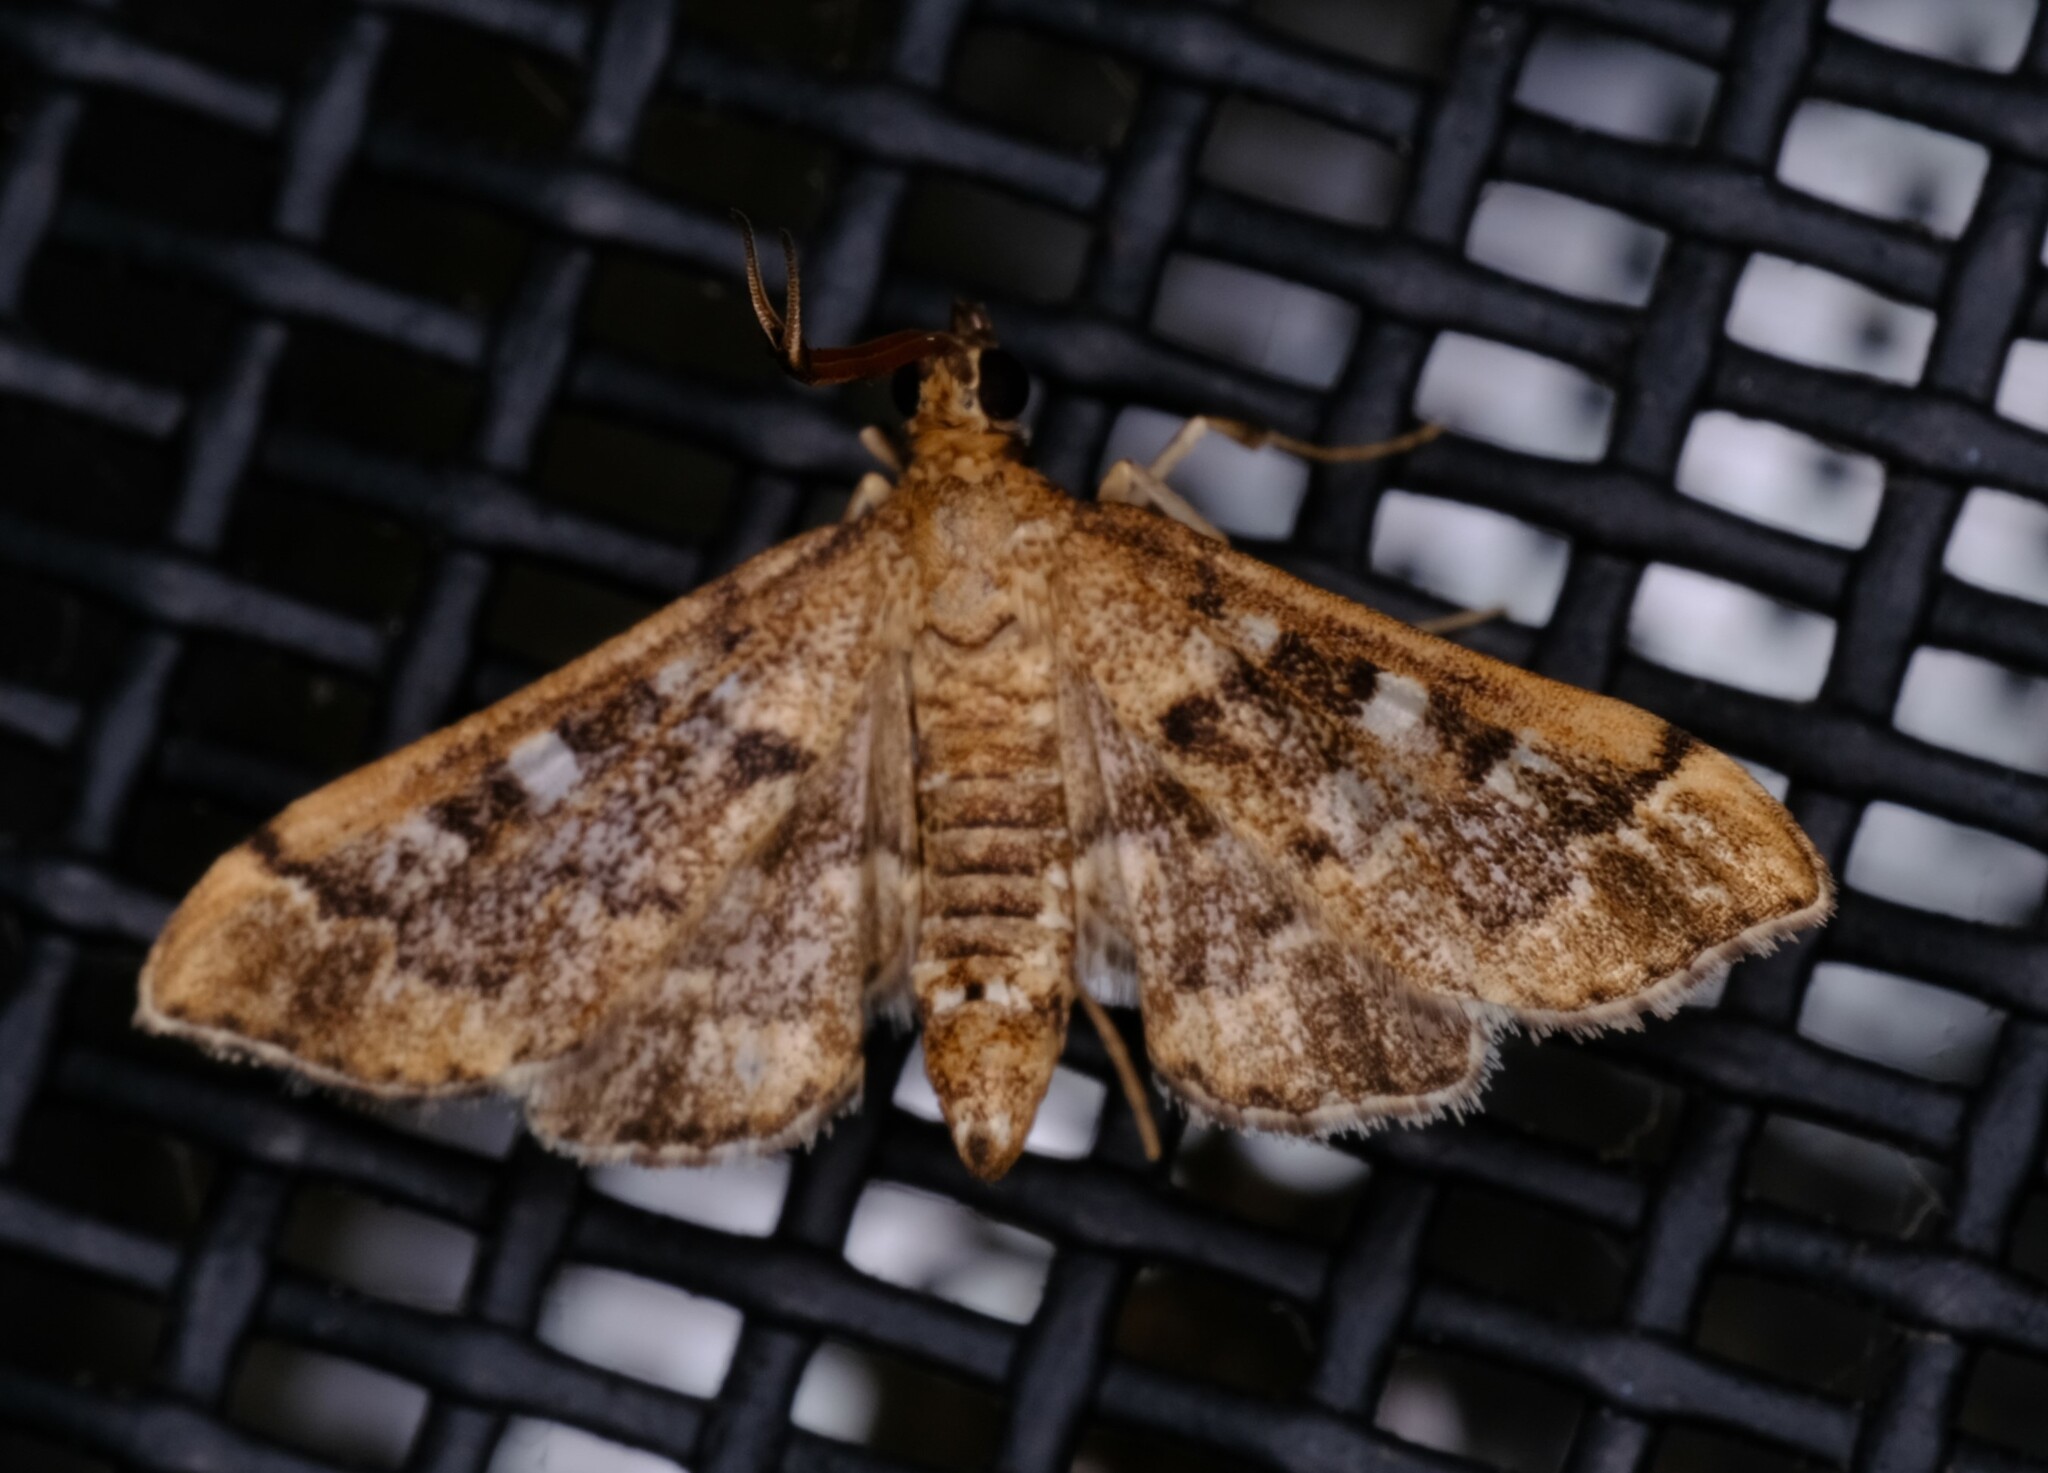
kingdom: Animalia
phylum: Arthropoda
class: Insecta
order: Lepidoptera
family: Crambidae
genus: Nacoleia
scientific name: Nacoleia rhoeoalis
